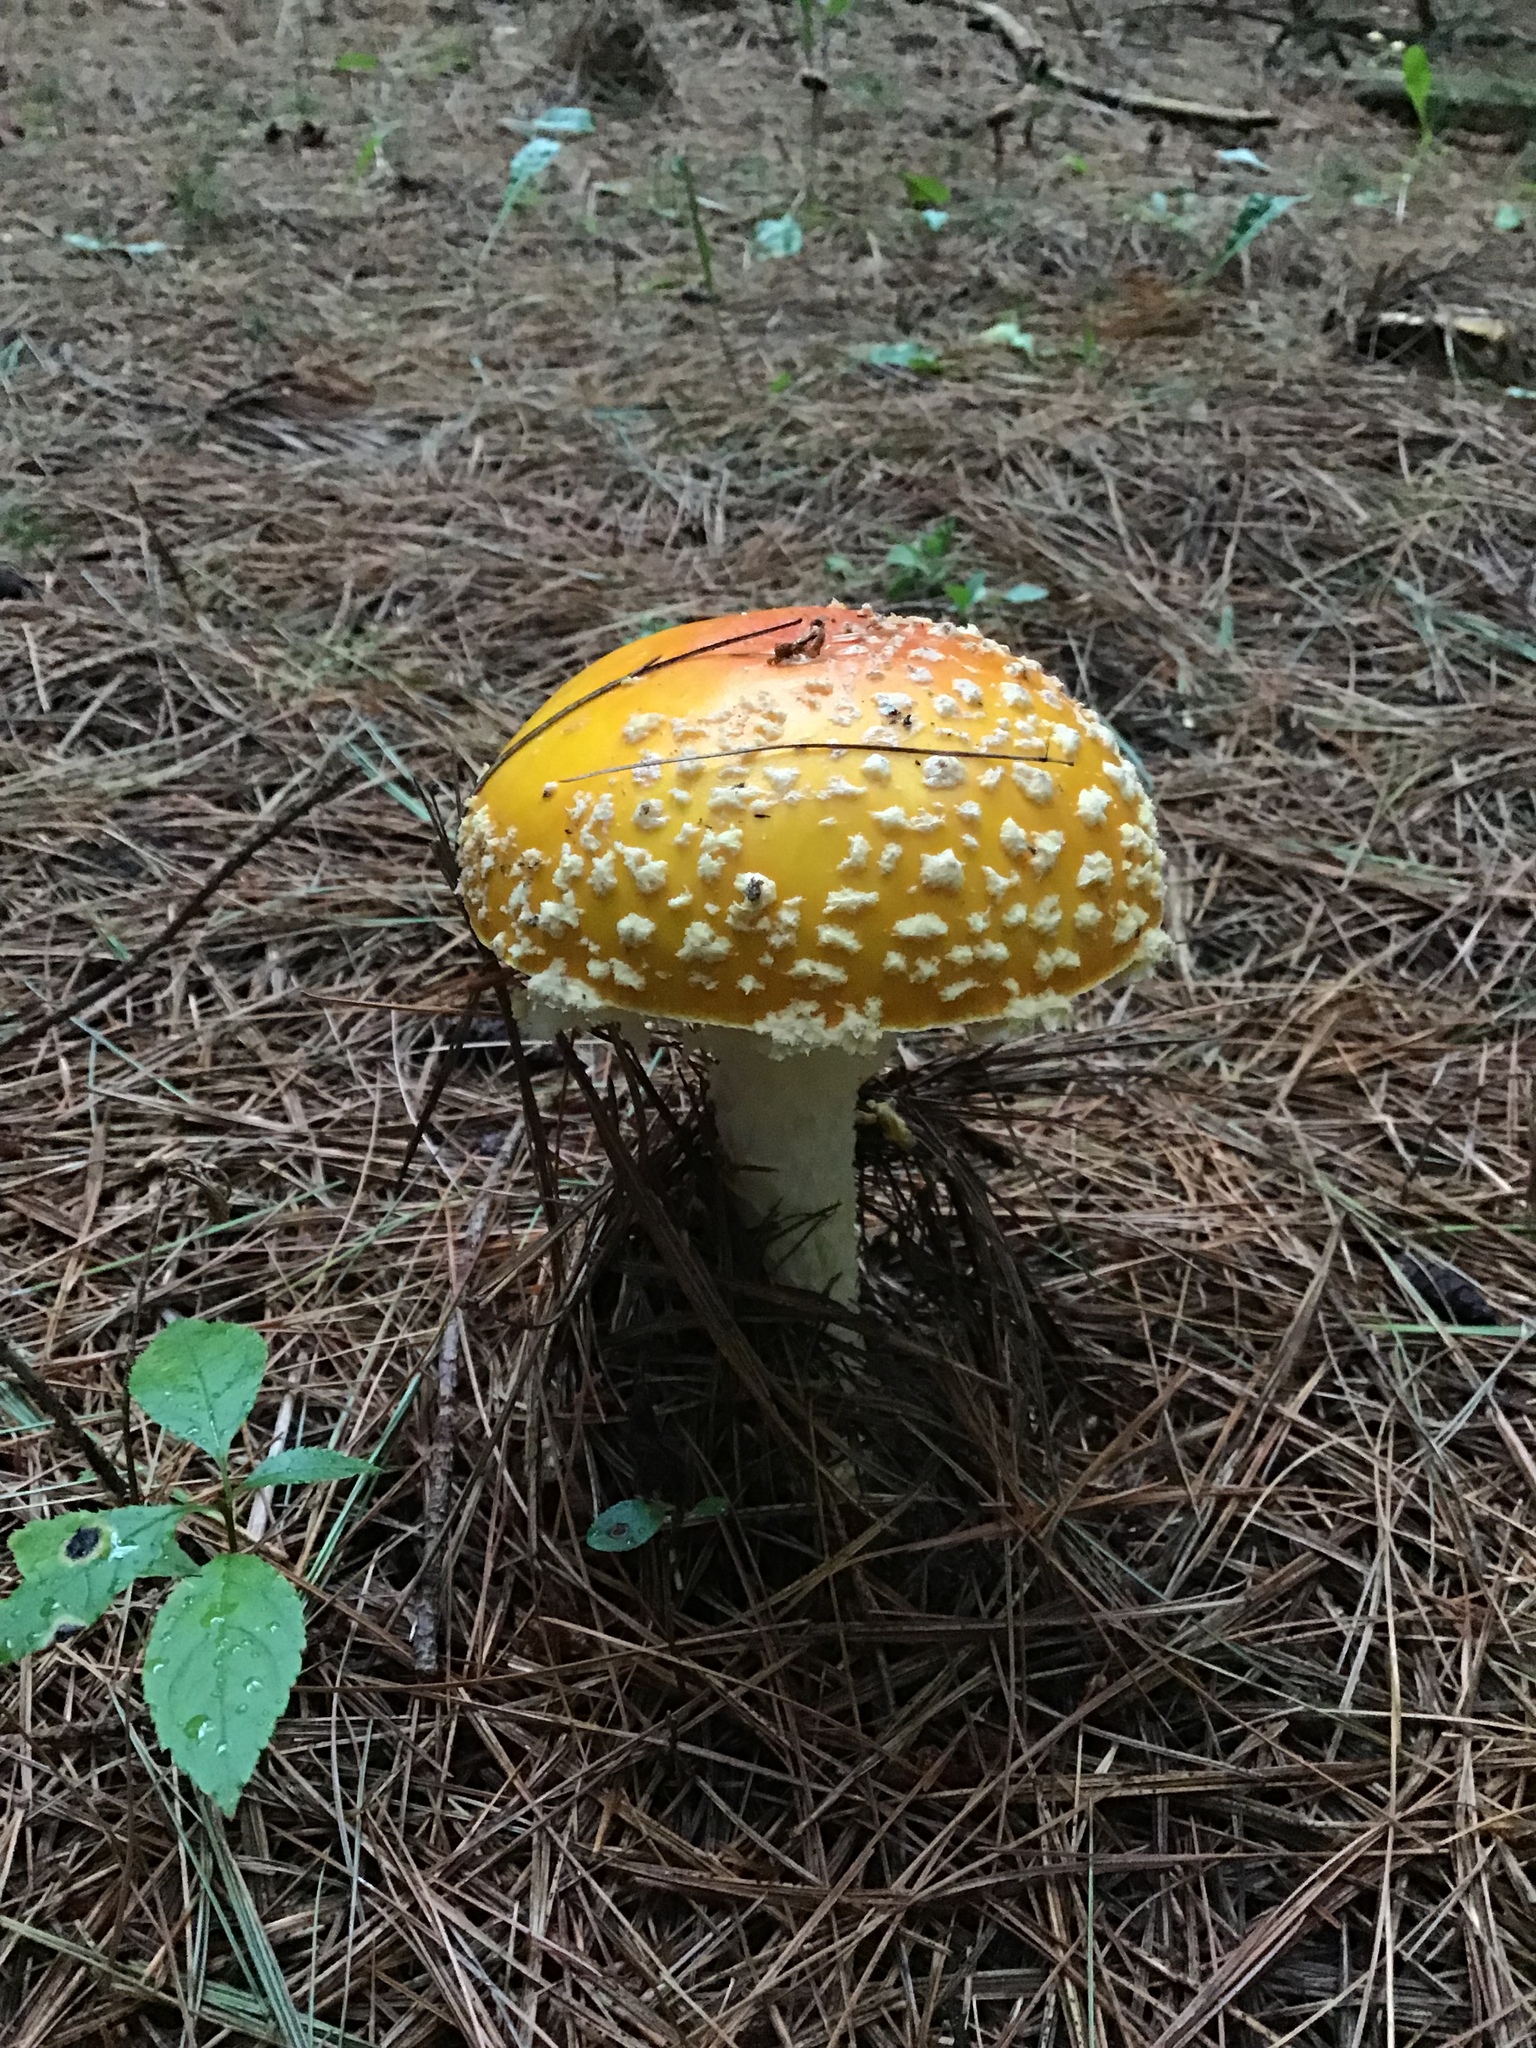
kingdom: Fungi
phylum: Basidiomycota
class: Agaricomycetes
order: Agaricales
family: Amanitaceae
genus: Amanita
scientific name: Amanita muscaria
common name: Fly agaric
